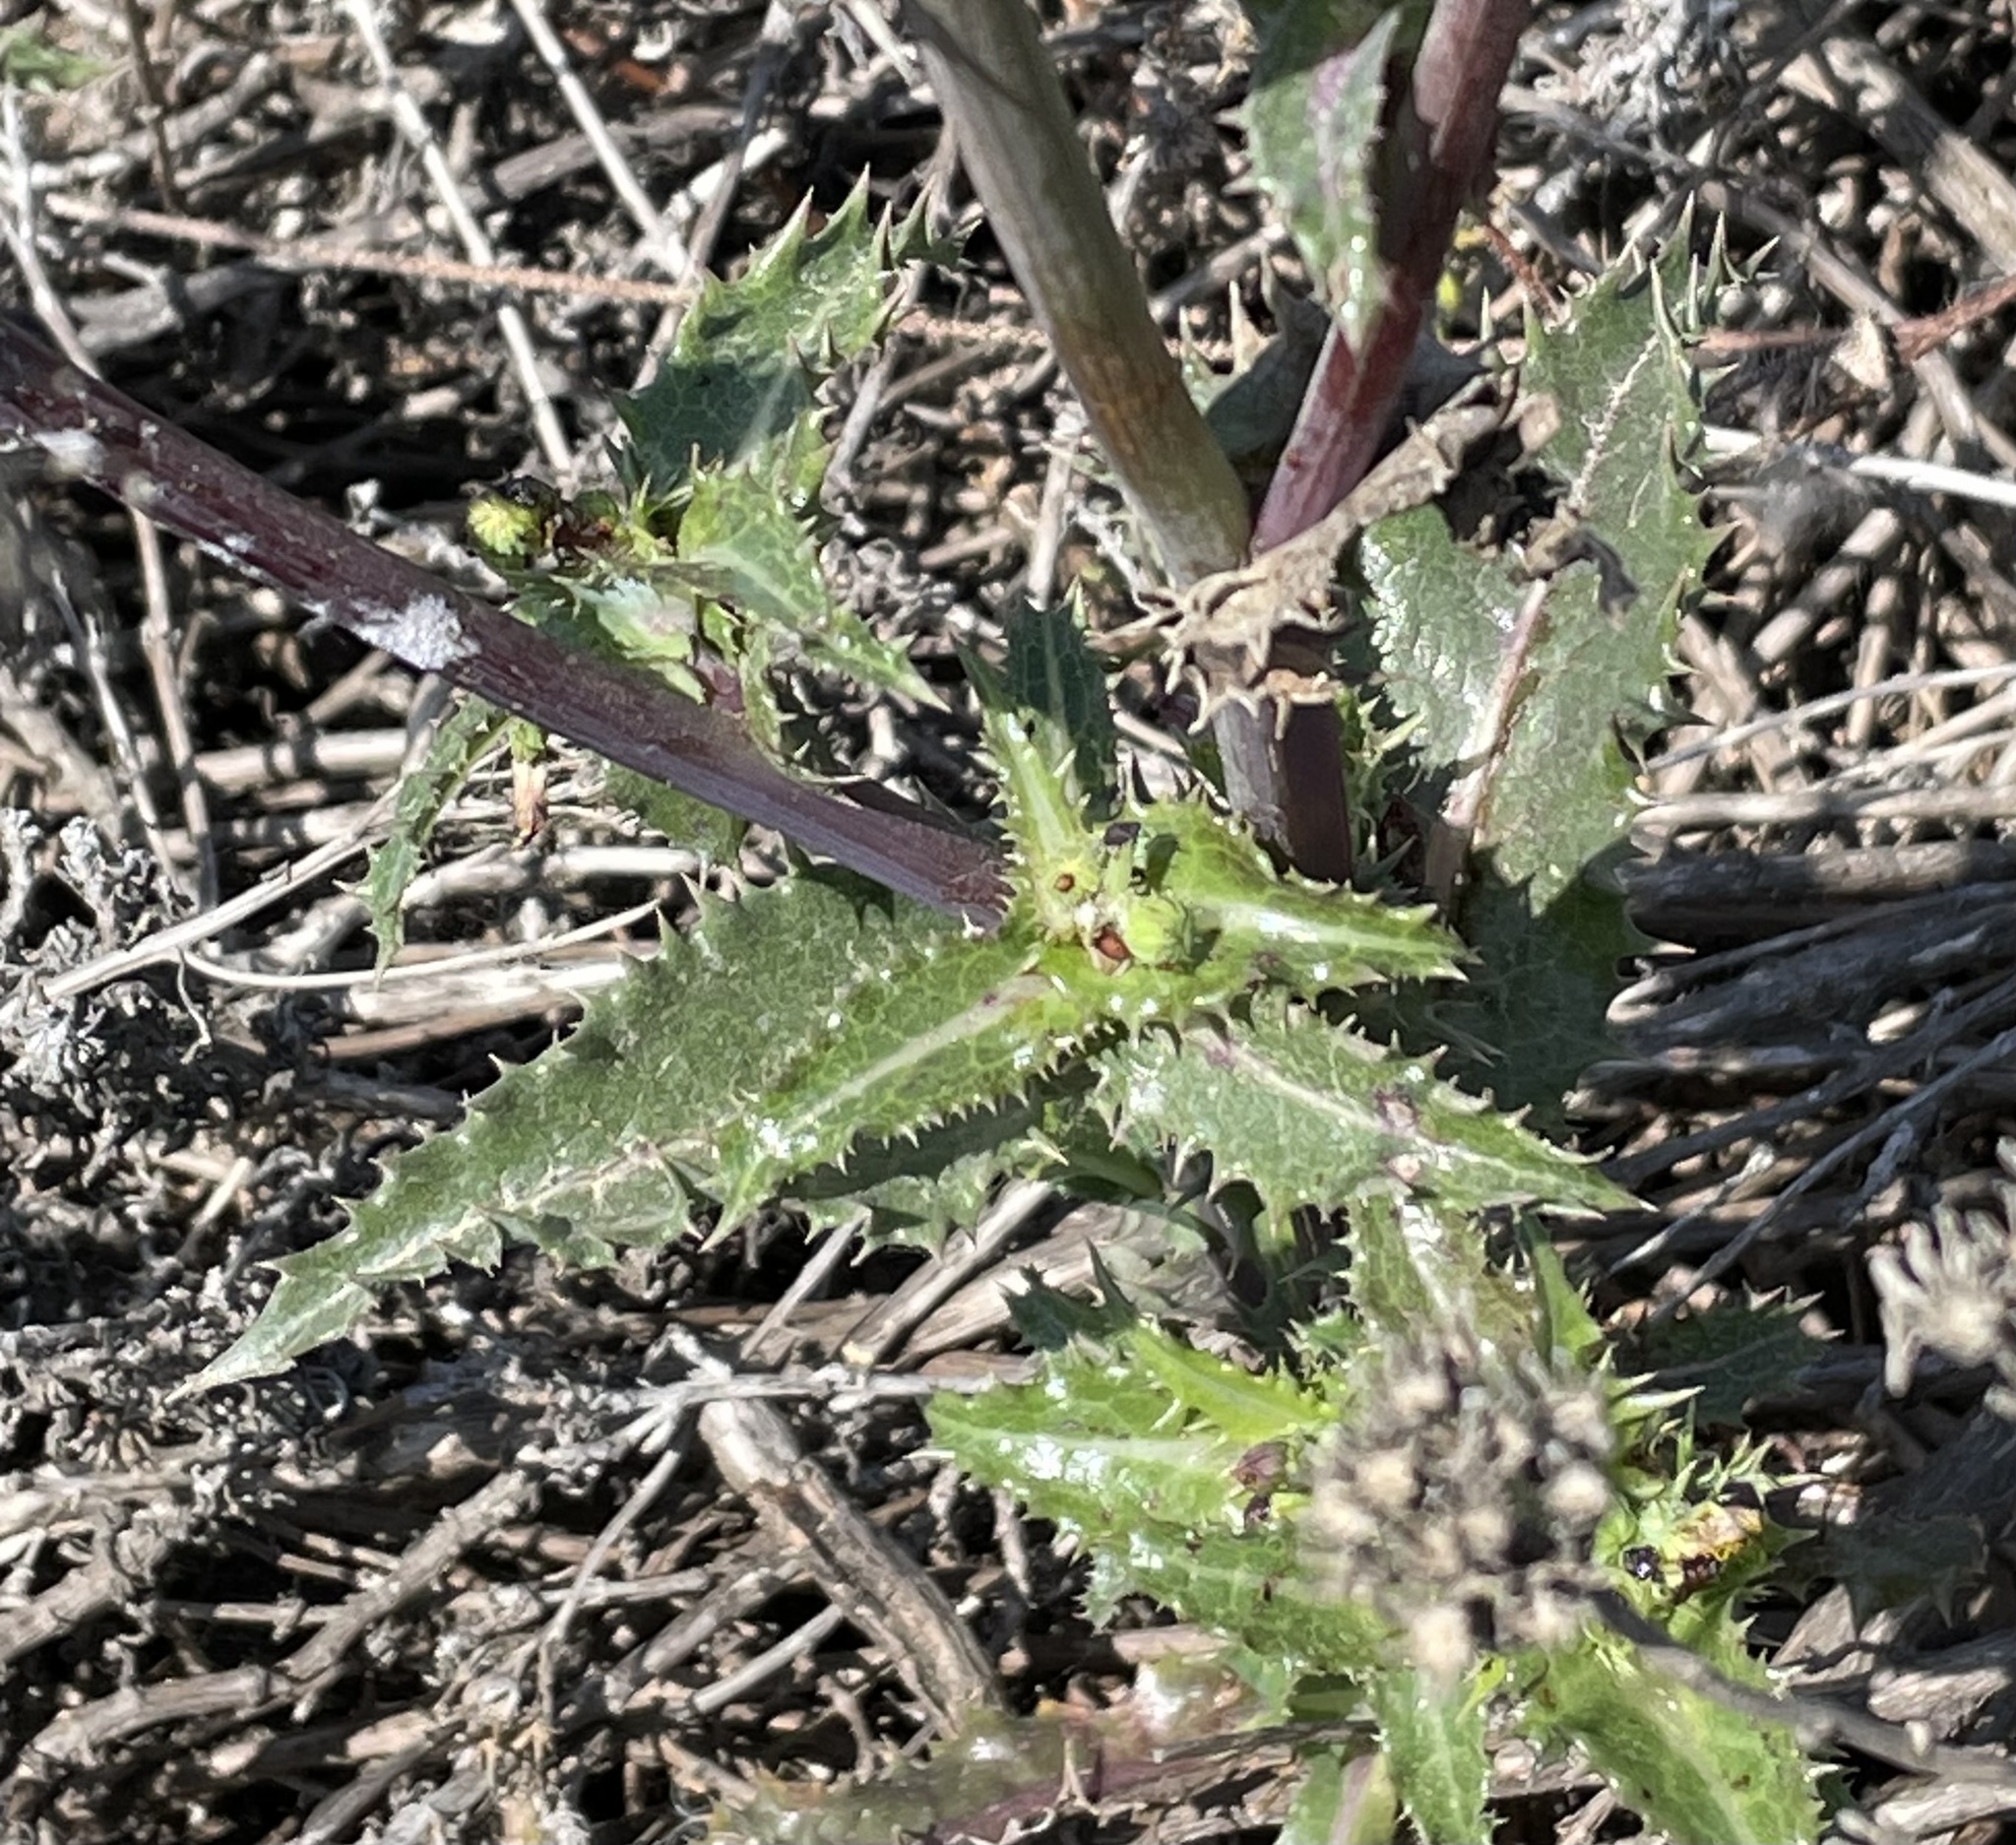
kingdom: Plantae
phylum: Tracheophyta
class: Magnoliopsida
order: Asterales
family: Asteraceae
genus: Sonchus
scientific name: Sonchus asper
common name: Prickly sow-thistle
